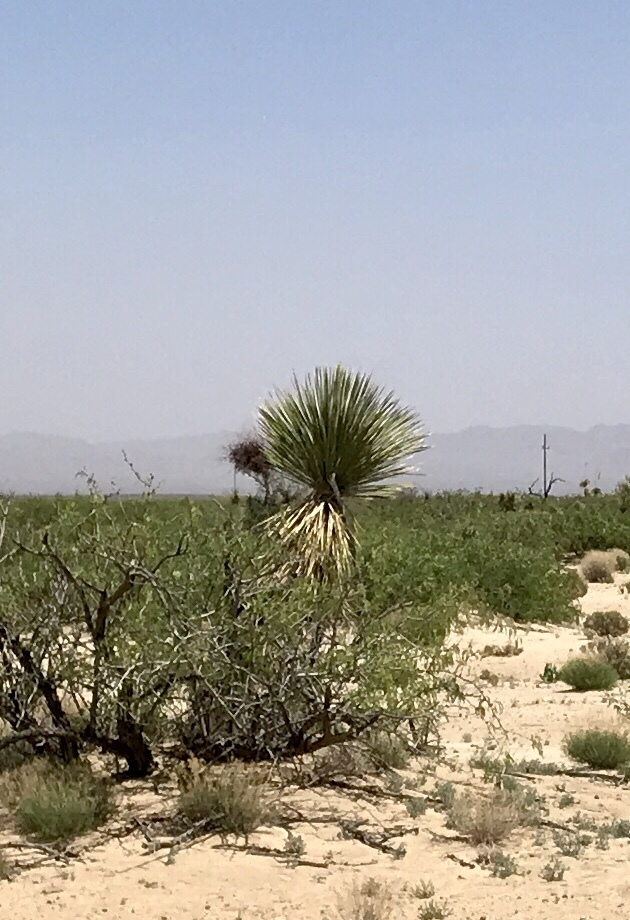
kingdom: Plantae
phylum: Tracheophyta
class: Liliopsida
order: Asparagales
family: Asparagaceae
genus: Yucca
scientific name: Yucca elata
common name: Palmella
